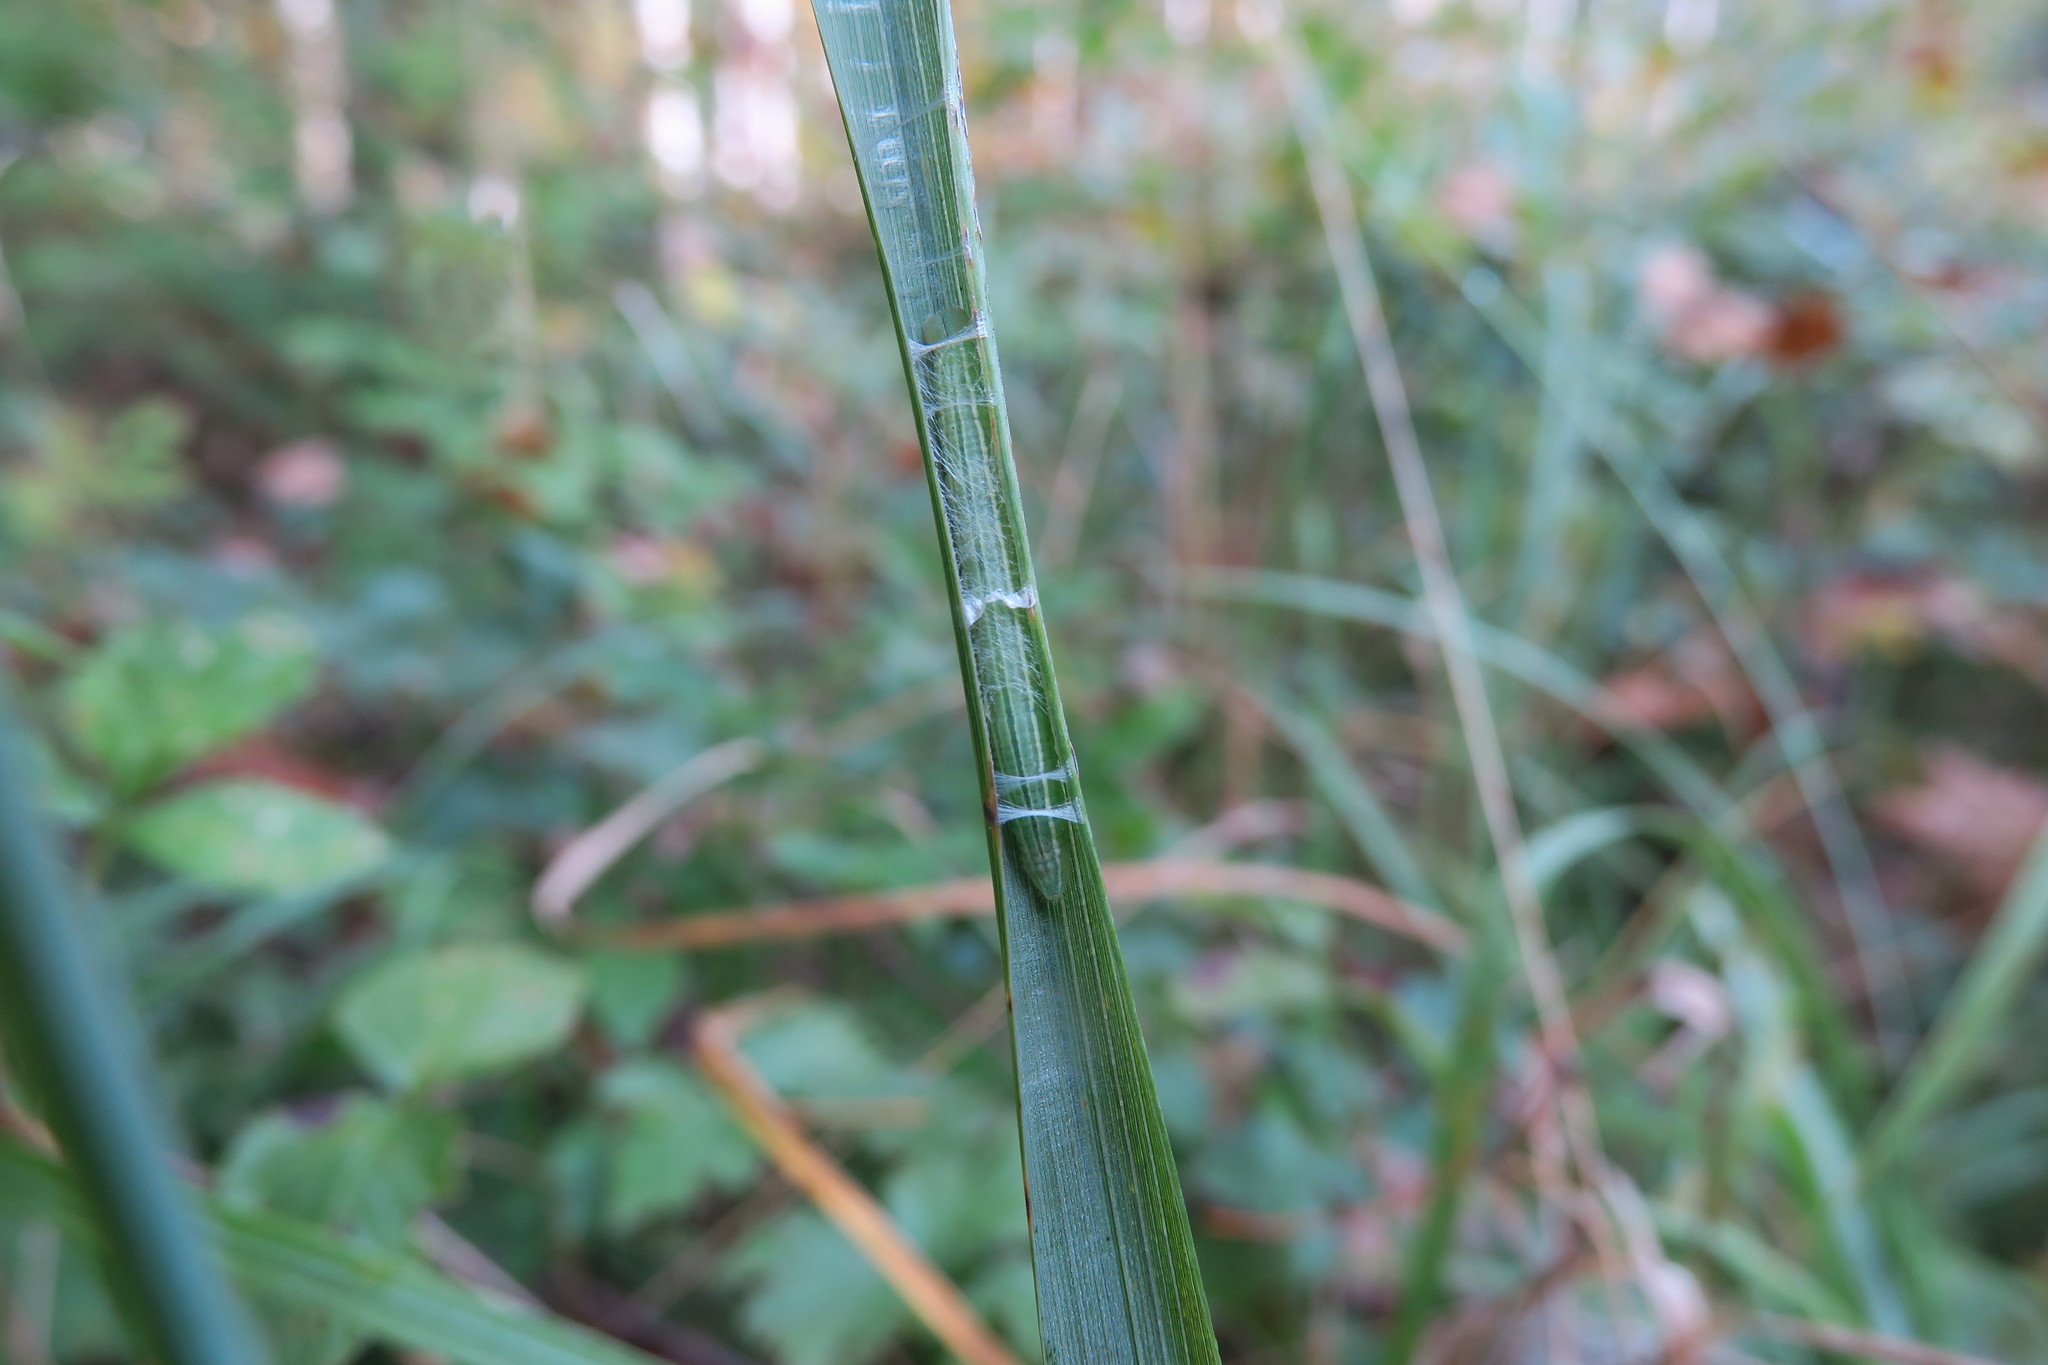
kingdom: Animalia
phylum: Arthropoda
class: Insecta
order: Lepidoptera
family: Hesperiidae
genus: Carterocephalus
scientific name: Carterocephalus palaemon
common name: Chequered skipper
